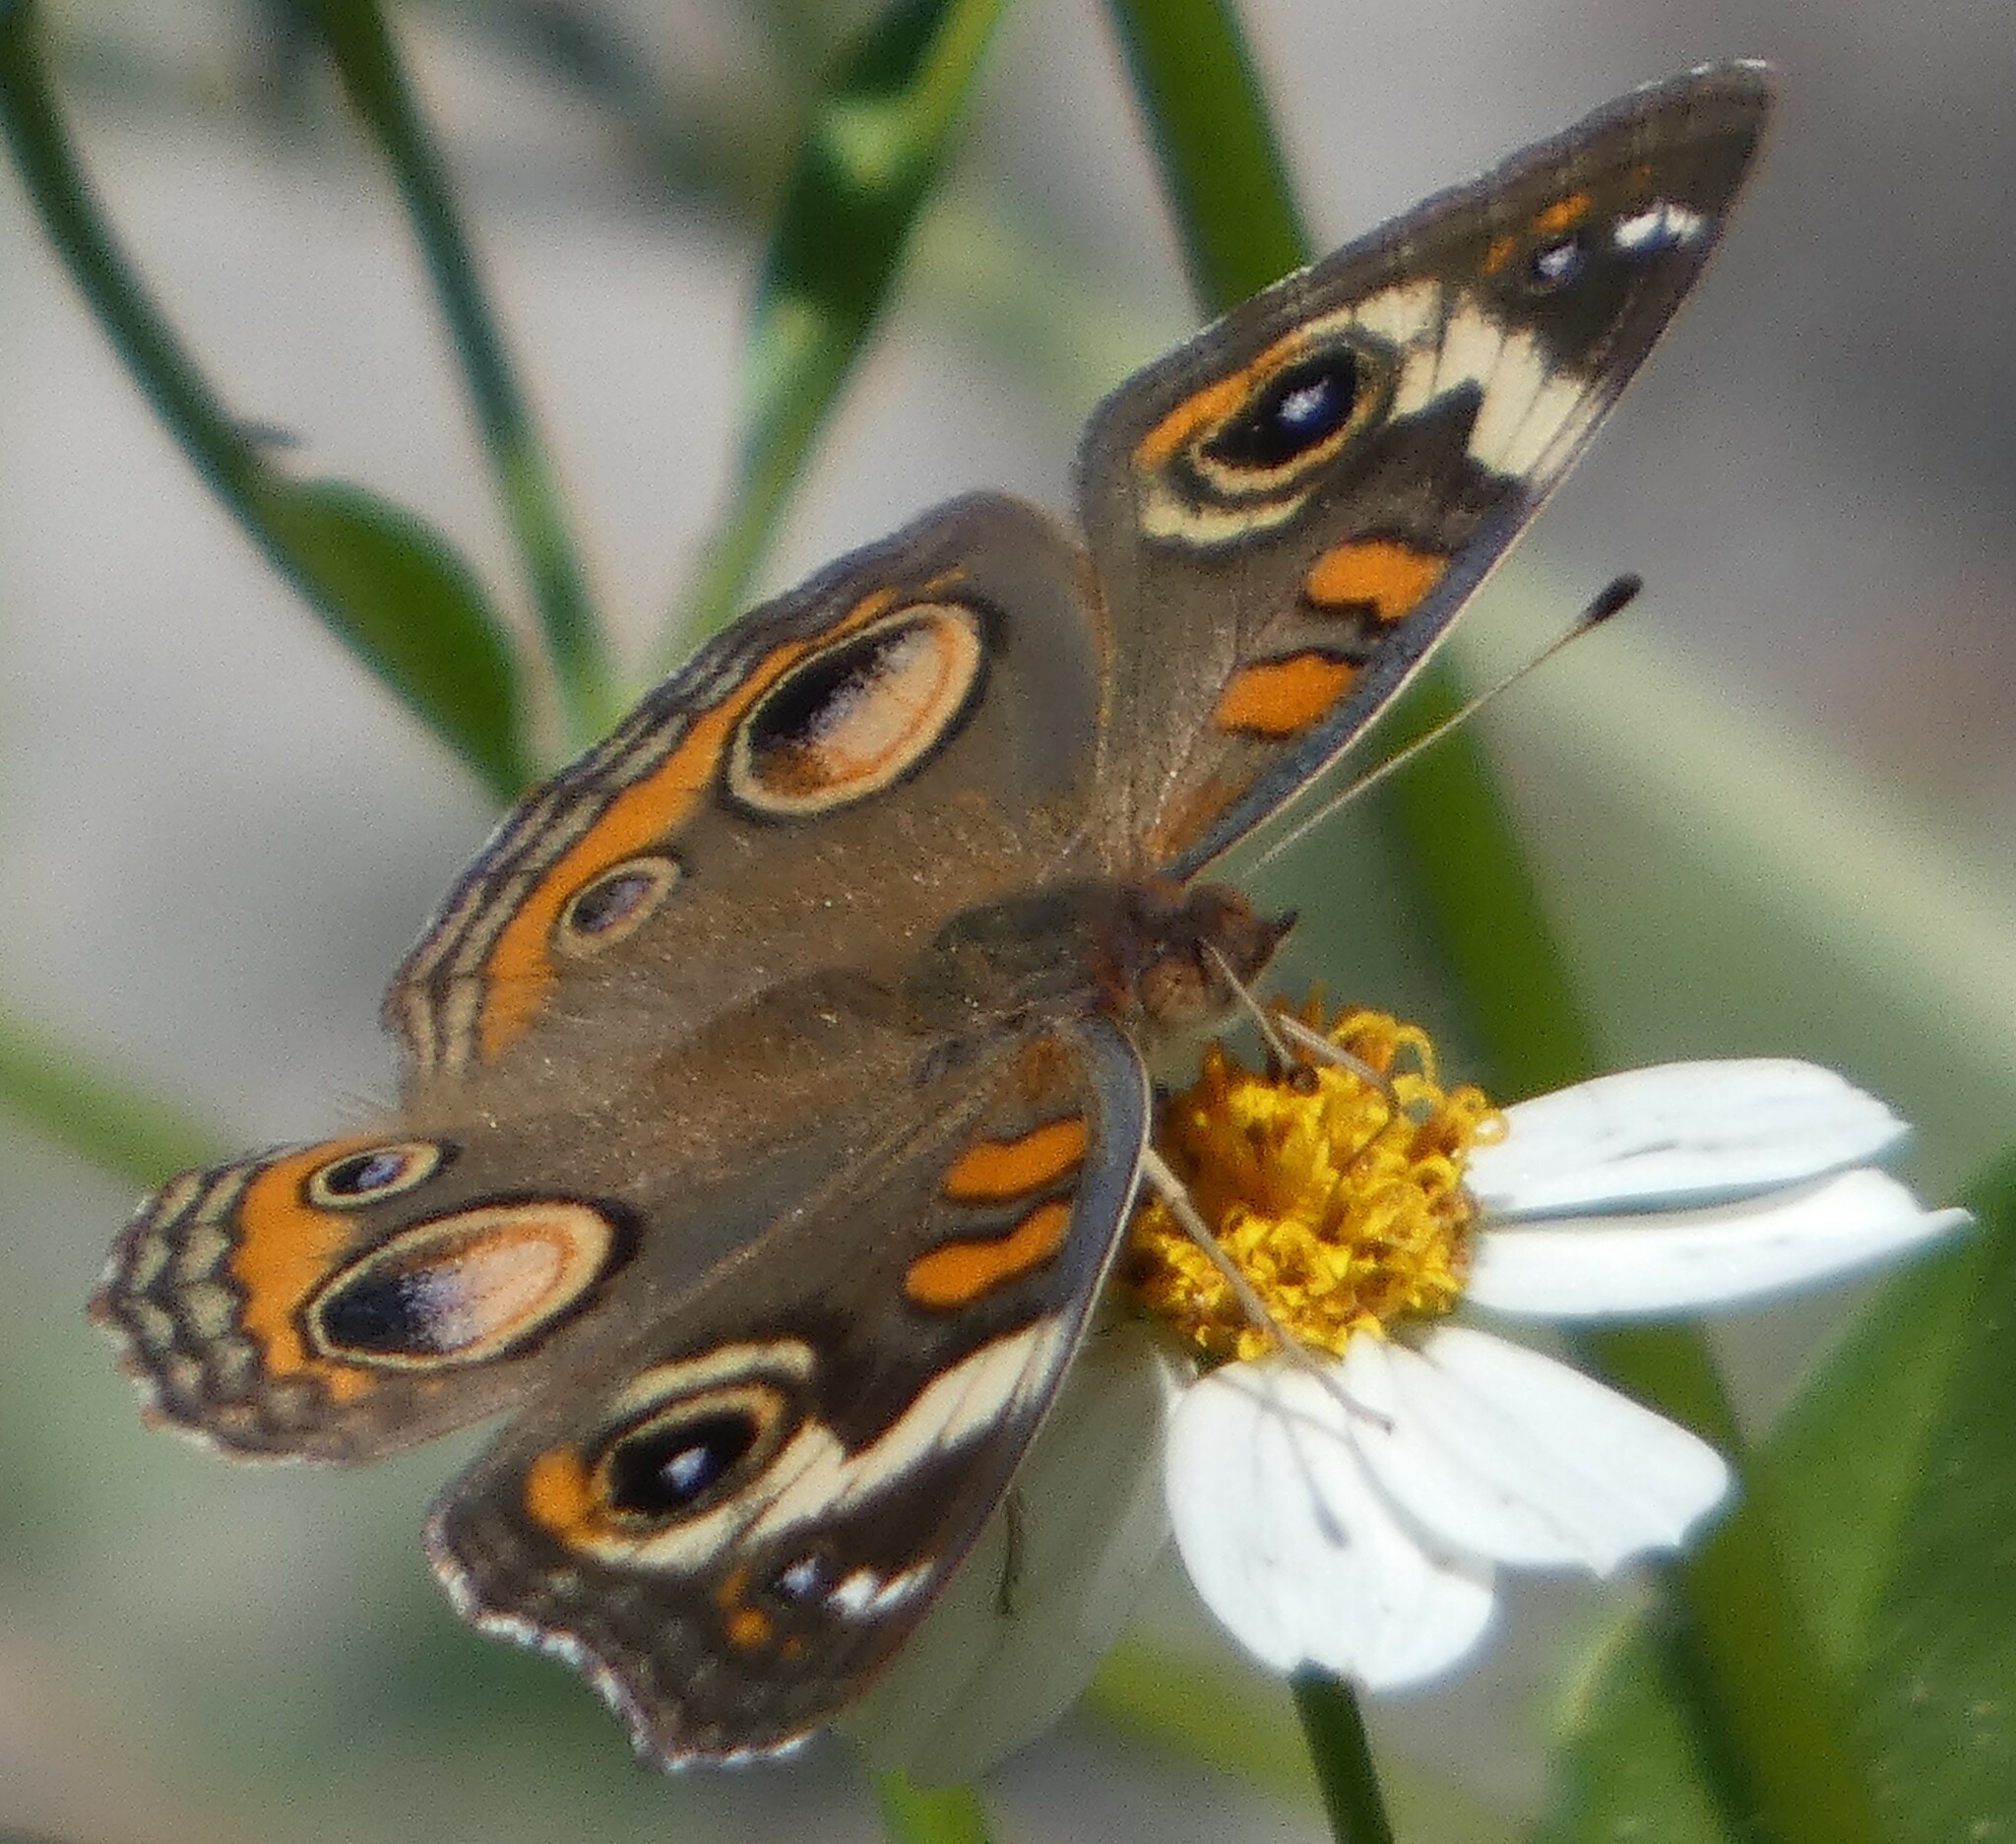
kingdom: Animalia
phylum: Arthropoda
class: Insecta
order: Lepidoptera
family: Nymphalidae
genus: Junonia
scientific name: Junonia coenia
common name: Common buckeye
